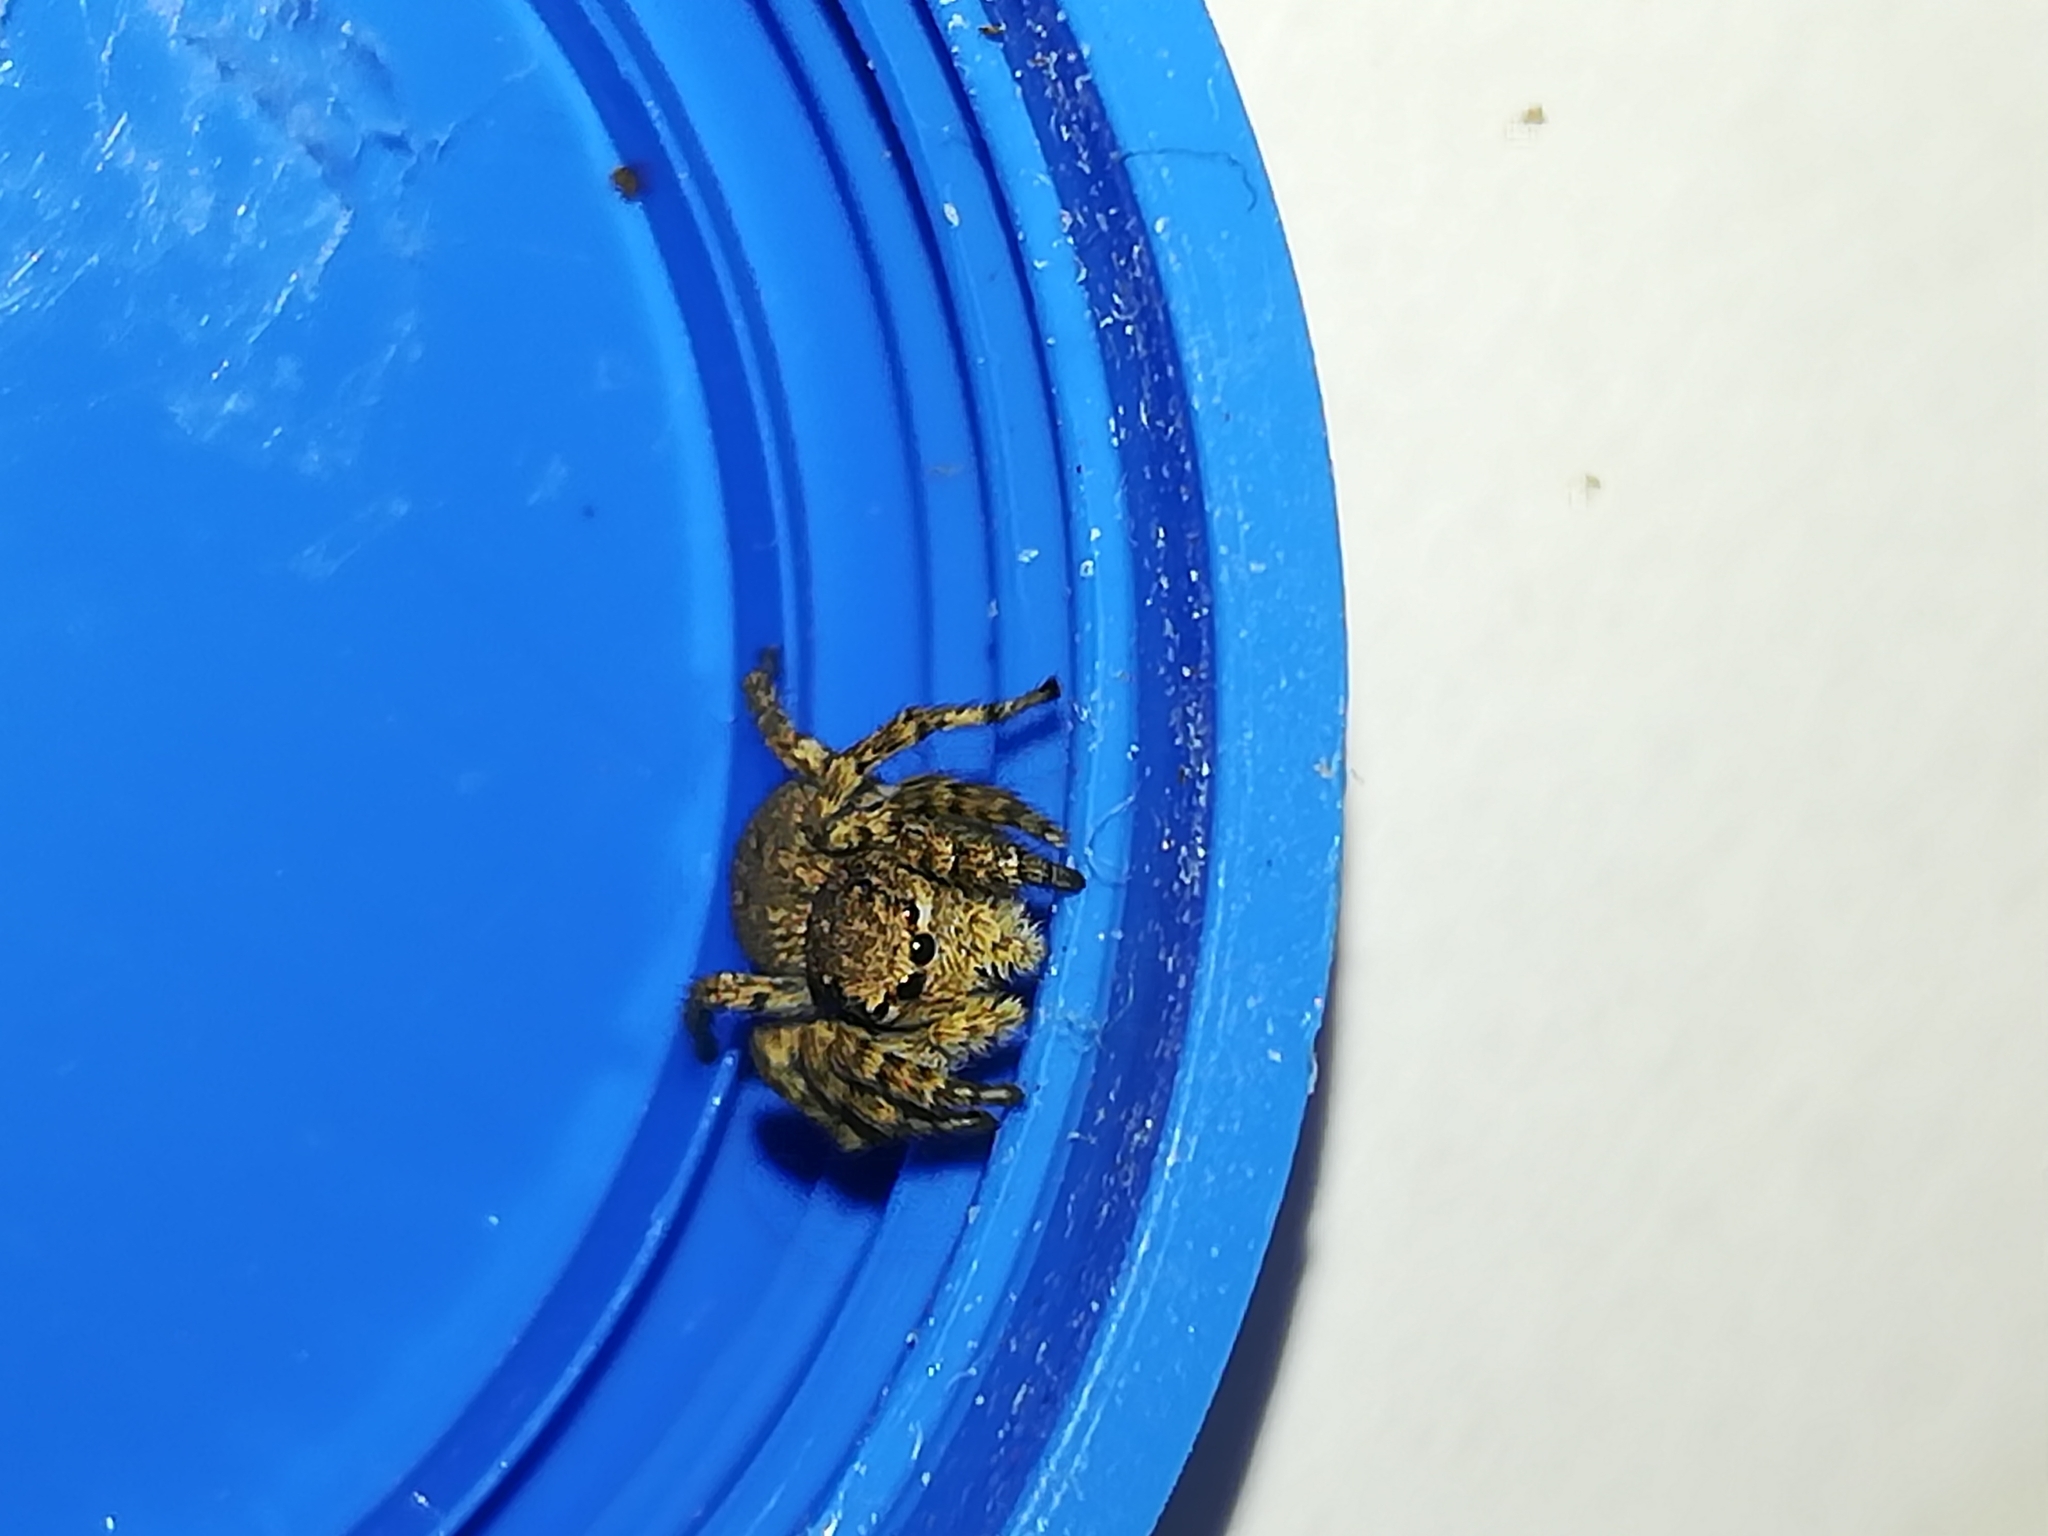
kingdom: Animalia
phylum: Arthropoda
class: Arachnida
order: Araneae
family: Salticidae
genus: Aelurillus
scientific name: Aelurillus v-insignitus
